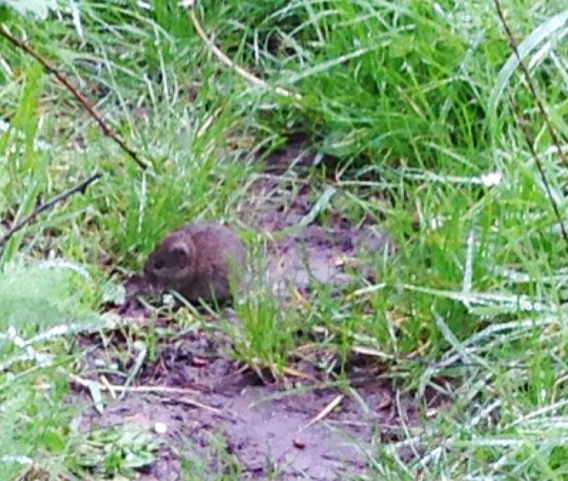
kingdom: Animalia
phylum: Chordata
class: Mammalia
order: Rodentia
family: Cricetidae
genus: Microtus
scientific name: Microtus californicus
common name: California vole
